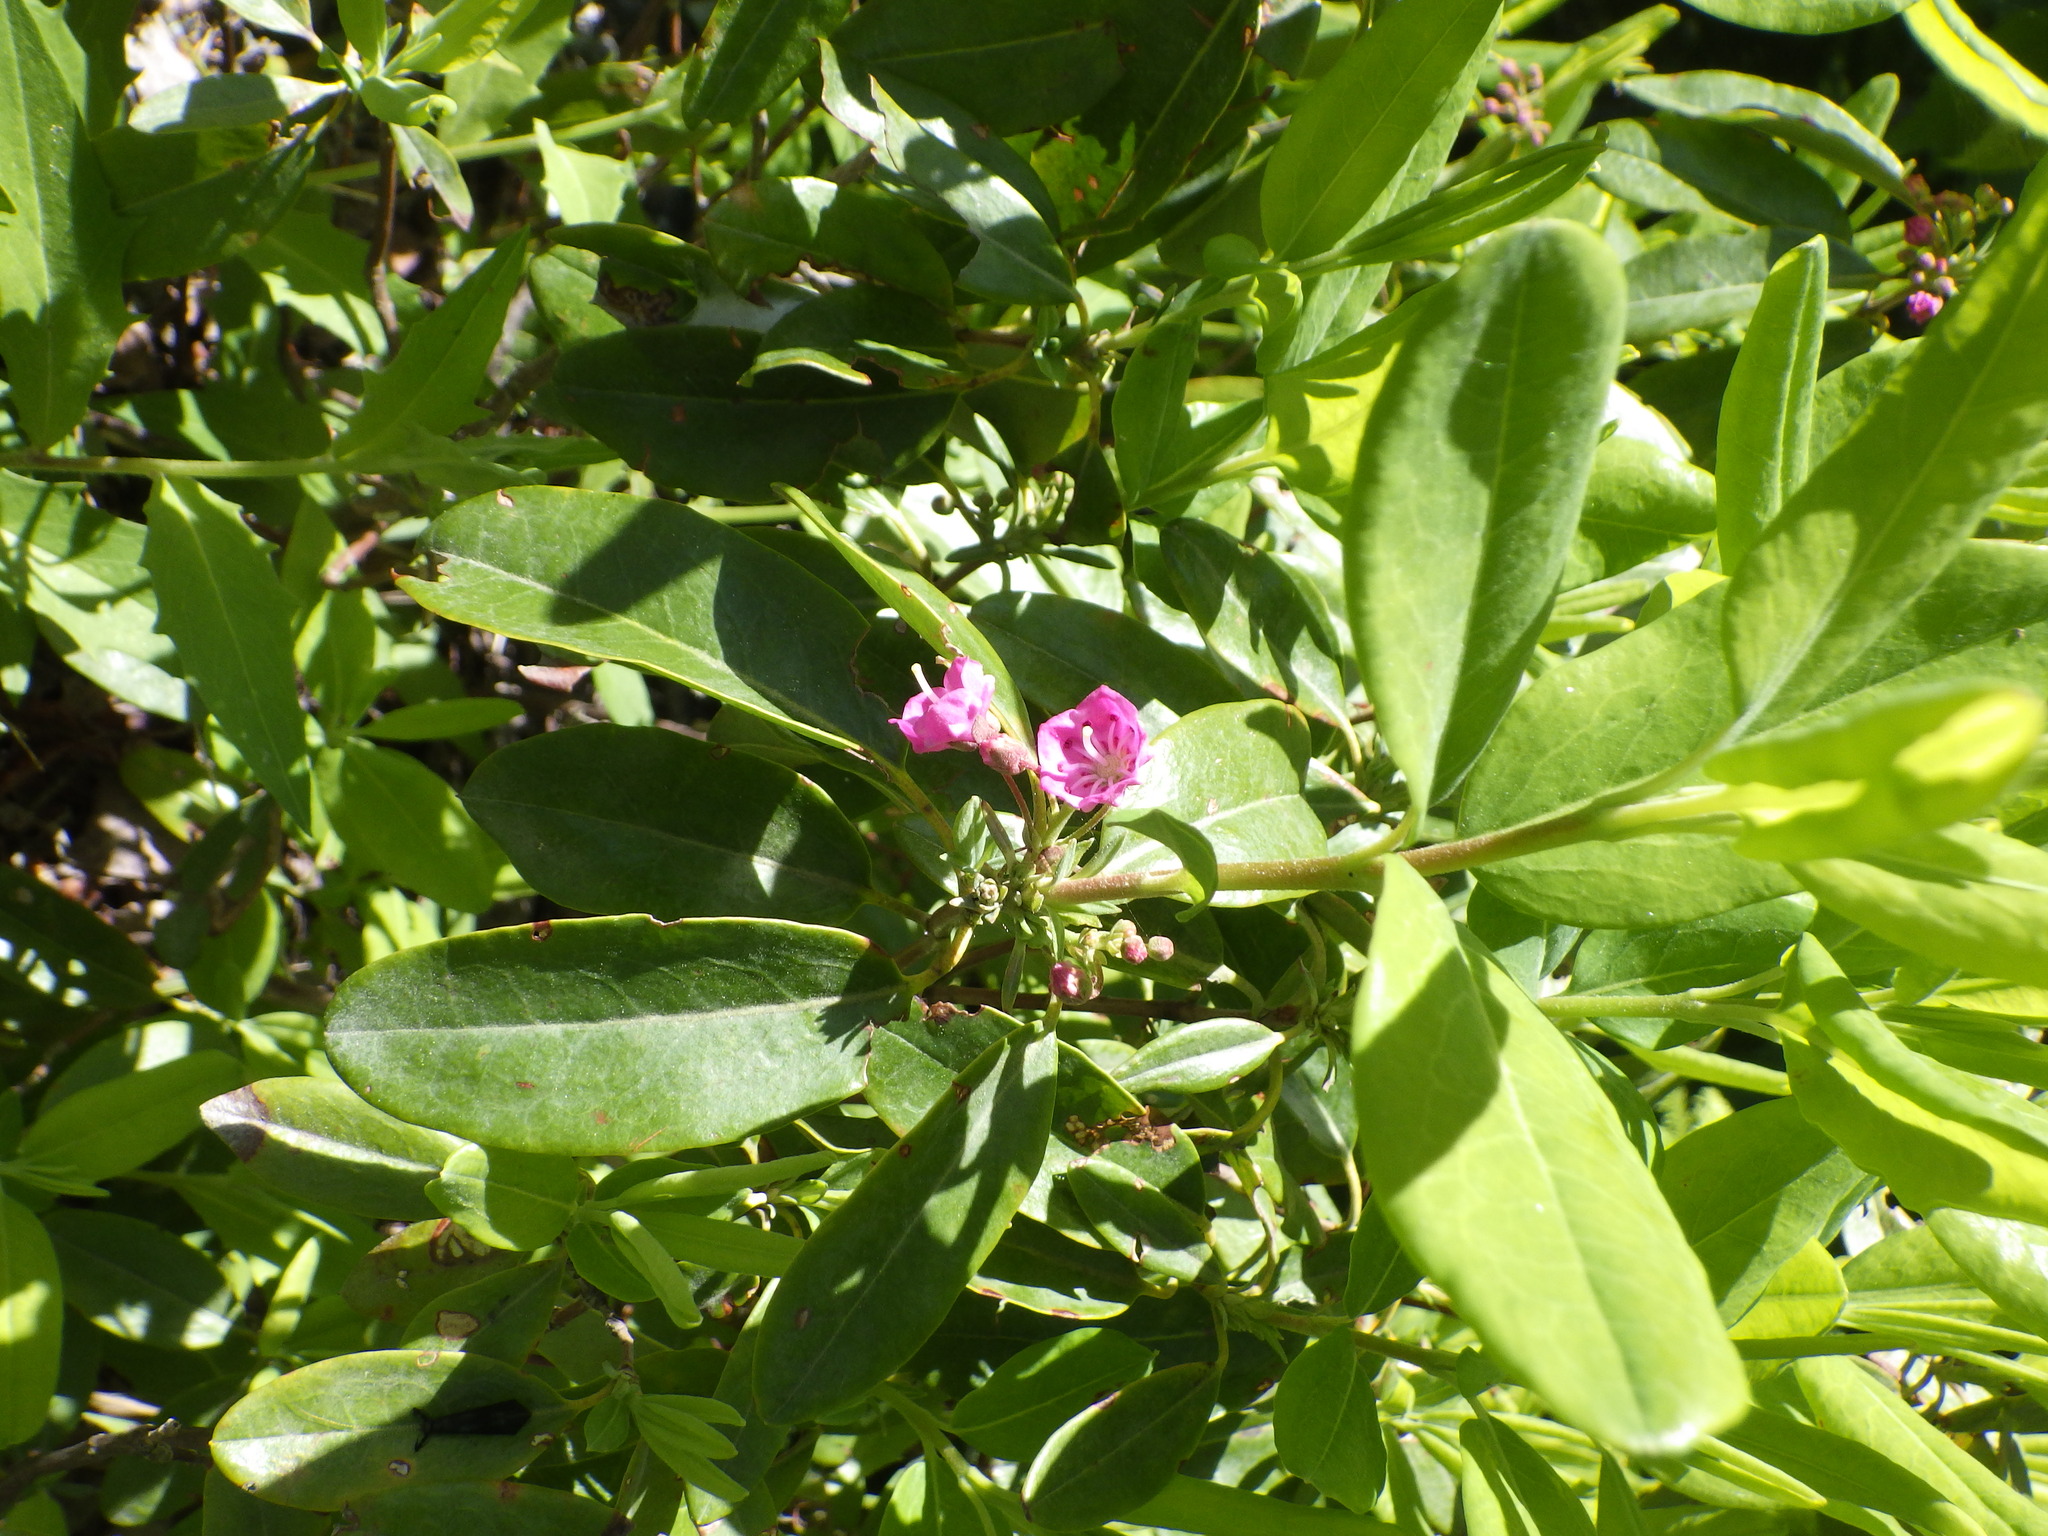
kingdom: Plantae
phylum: Tracheophyta
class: Magnoliopsida
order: Ericales
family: Ericaceae
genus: Kalmia
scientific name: Kalmia angustifolia
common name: Sheep-laurel
